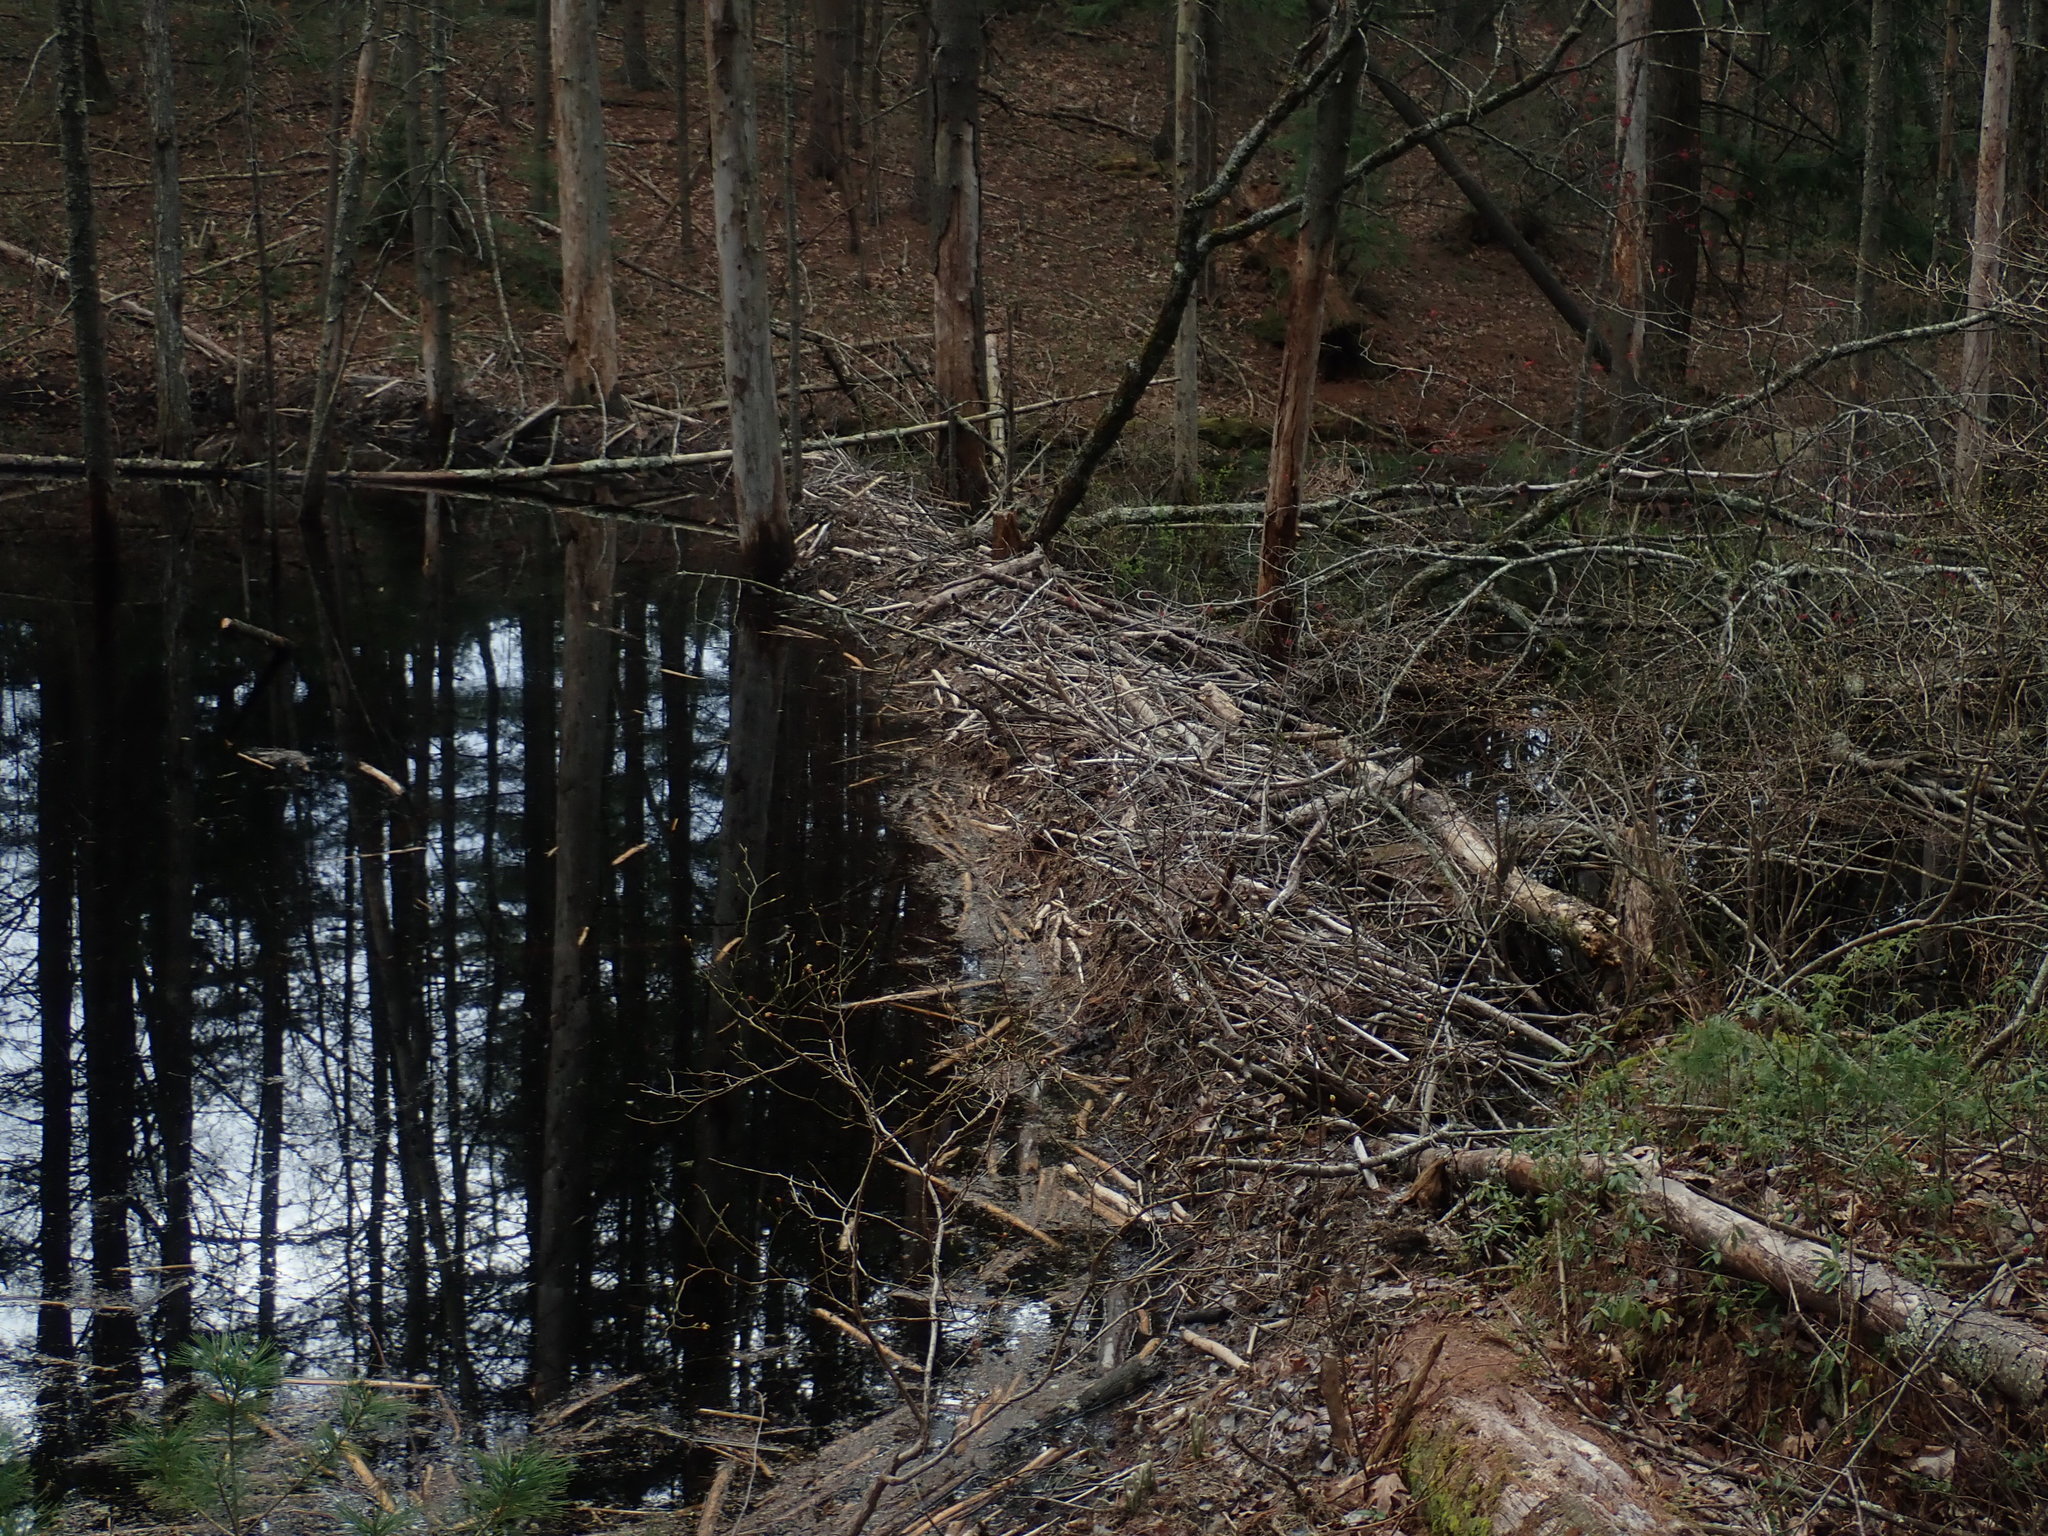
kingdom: Animalia
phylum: Chordata
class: Mammalia
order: Rodentia
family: Castoridae
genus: Castor
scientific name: Castor canadensis
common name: American beaver
